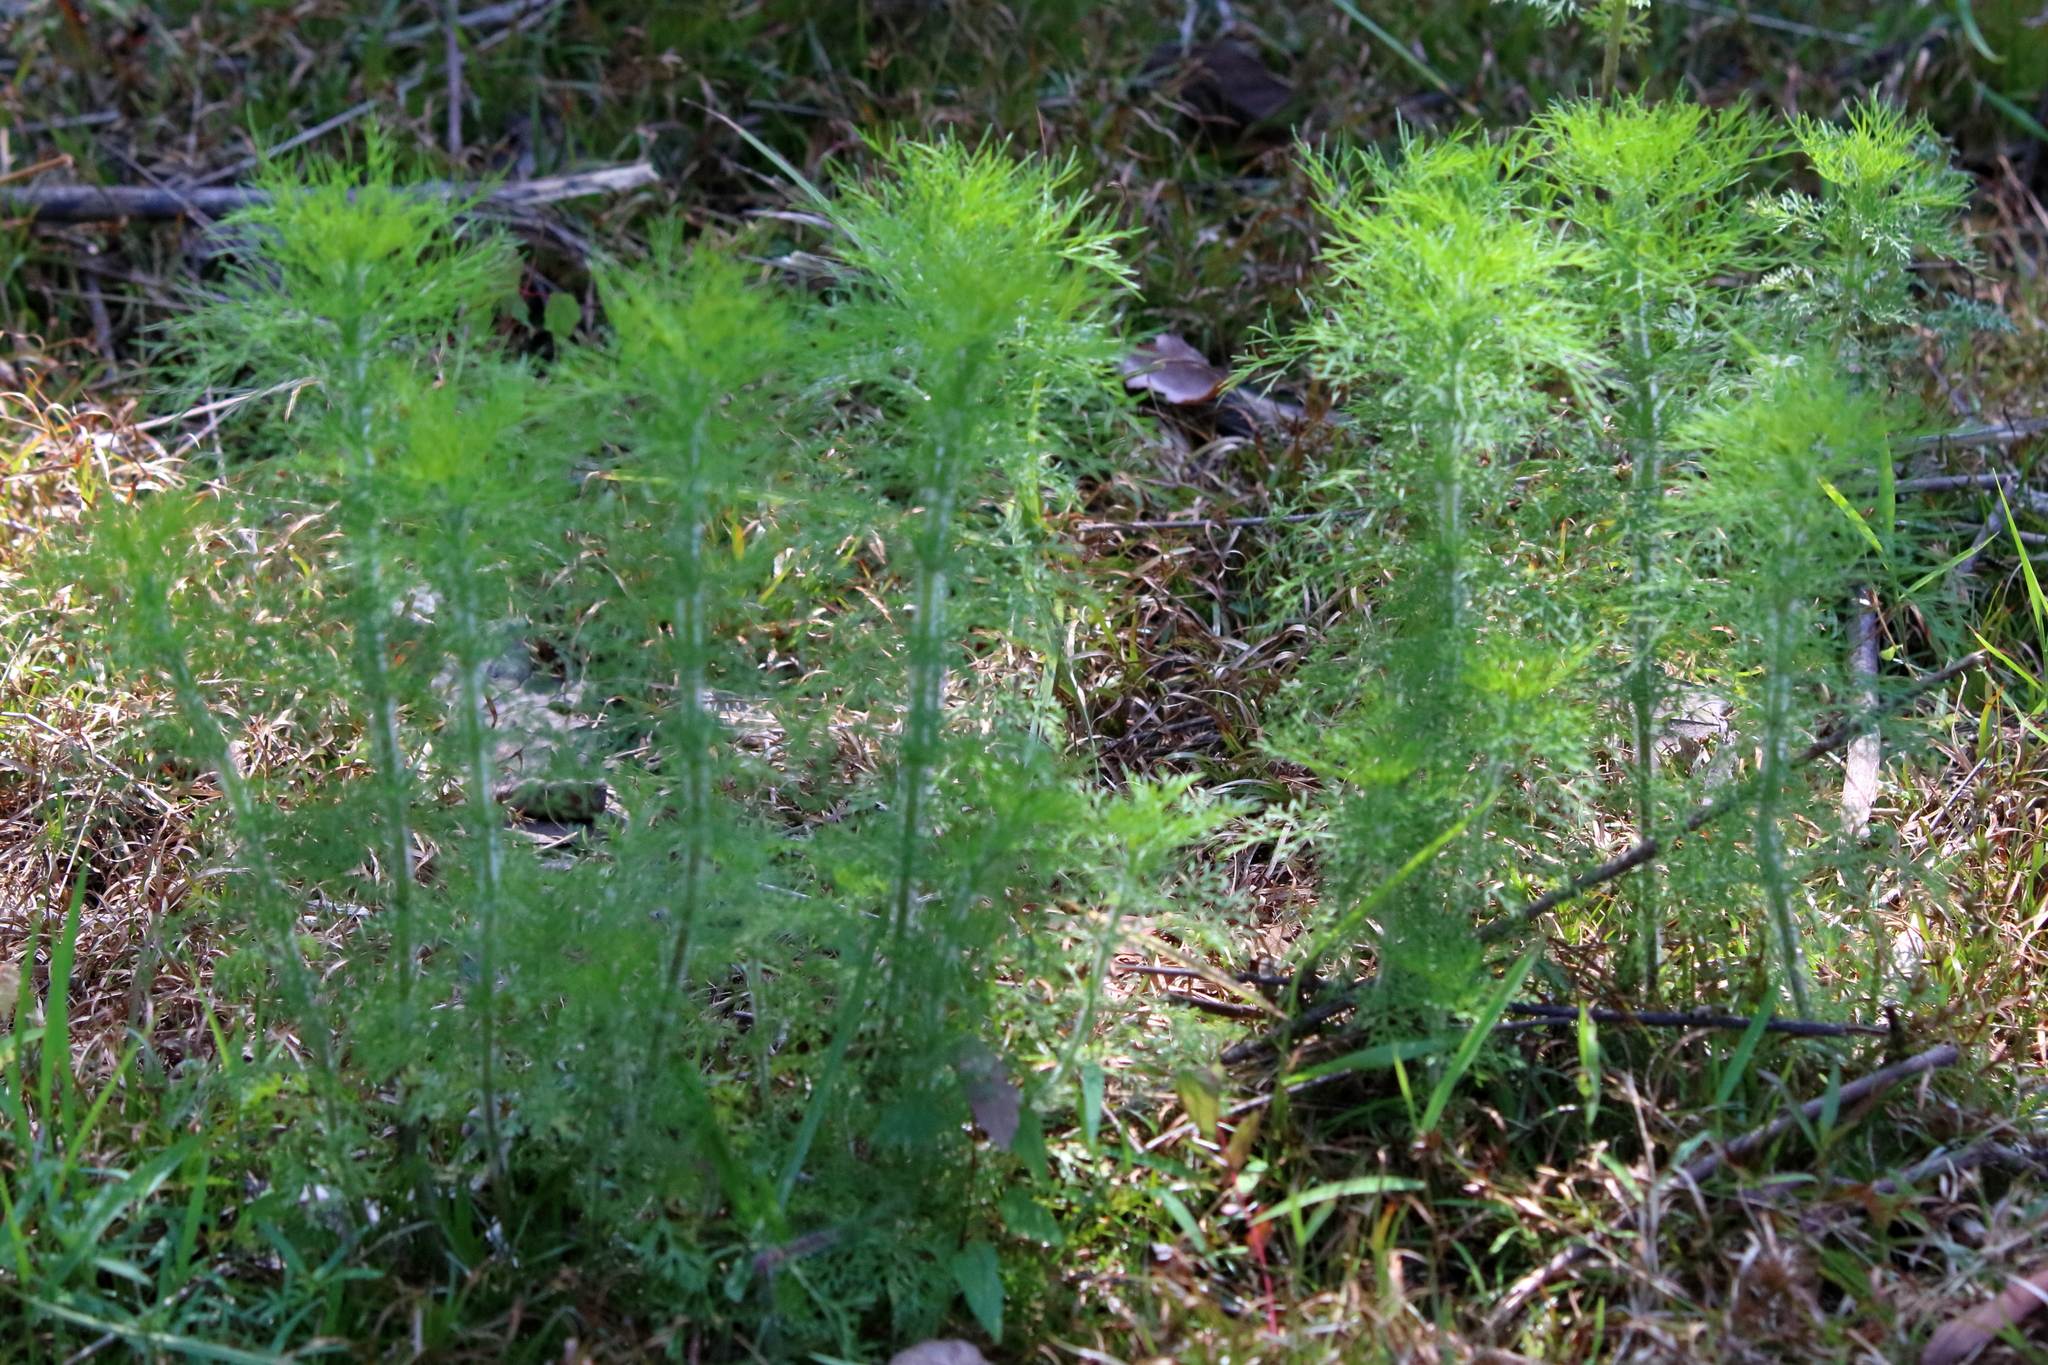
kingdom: Plantae
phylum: Tracheophyta
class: Magnoliopsida
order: Asterales
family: Asteraceae
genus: Eupatorium
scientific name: Eupatorium capillifolium
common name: Dog-fennel
